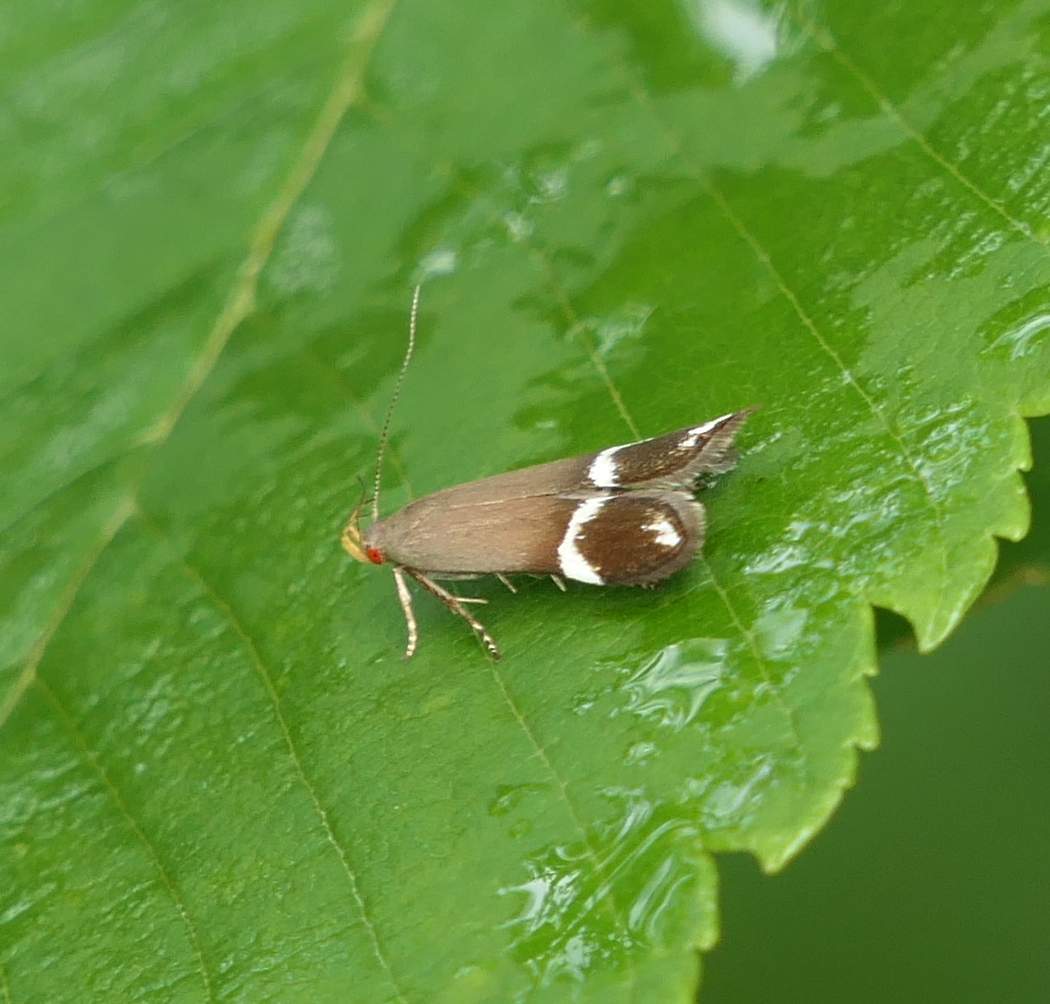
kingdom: Animalia
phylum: Arthropoda
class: Insecta
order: Lepidoptera
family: Gelechiidae
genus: Anacampsis
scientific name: Anacampsis tristrigella
